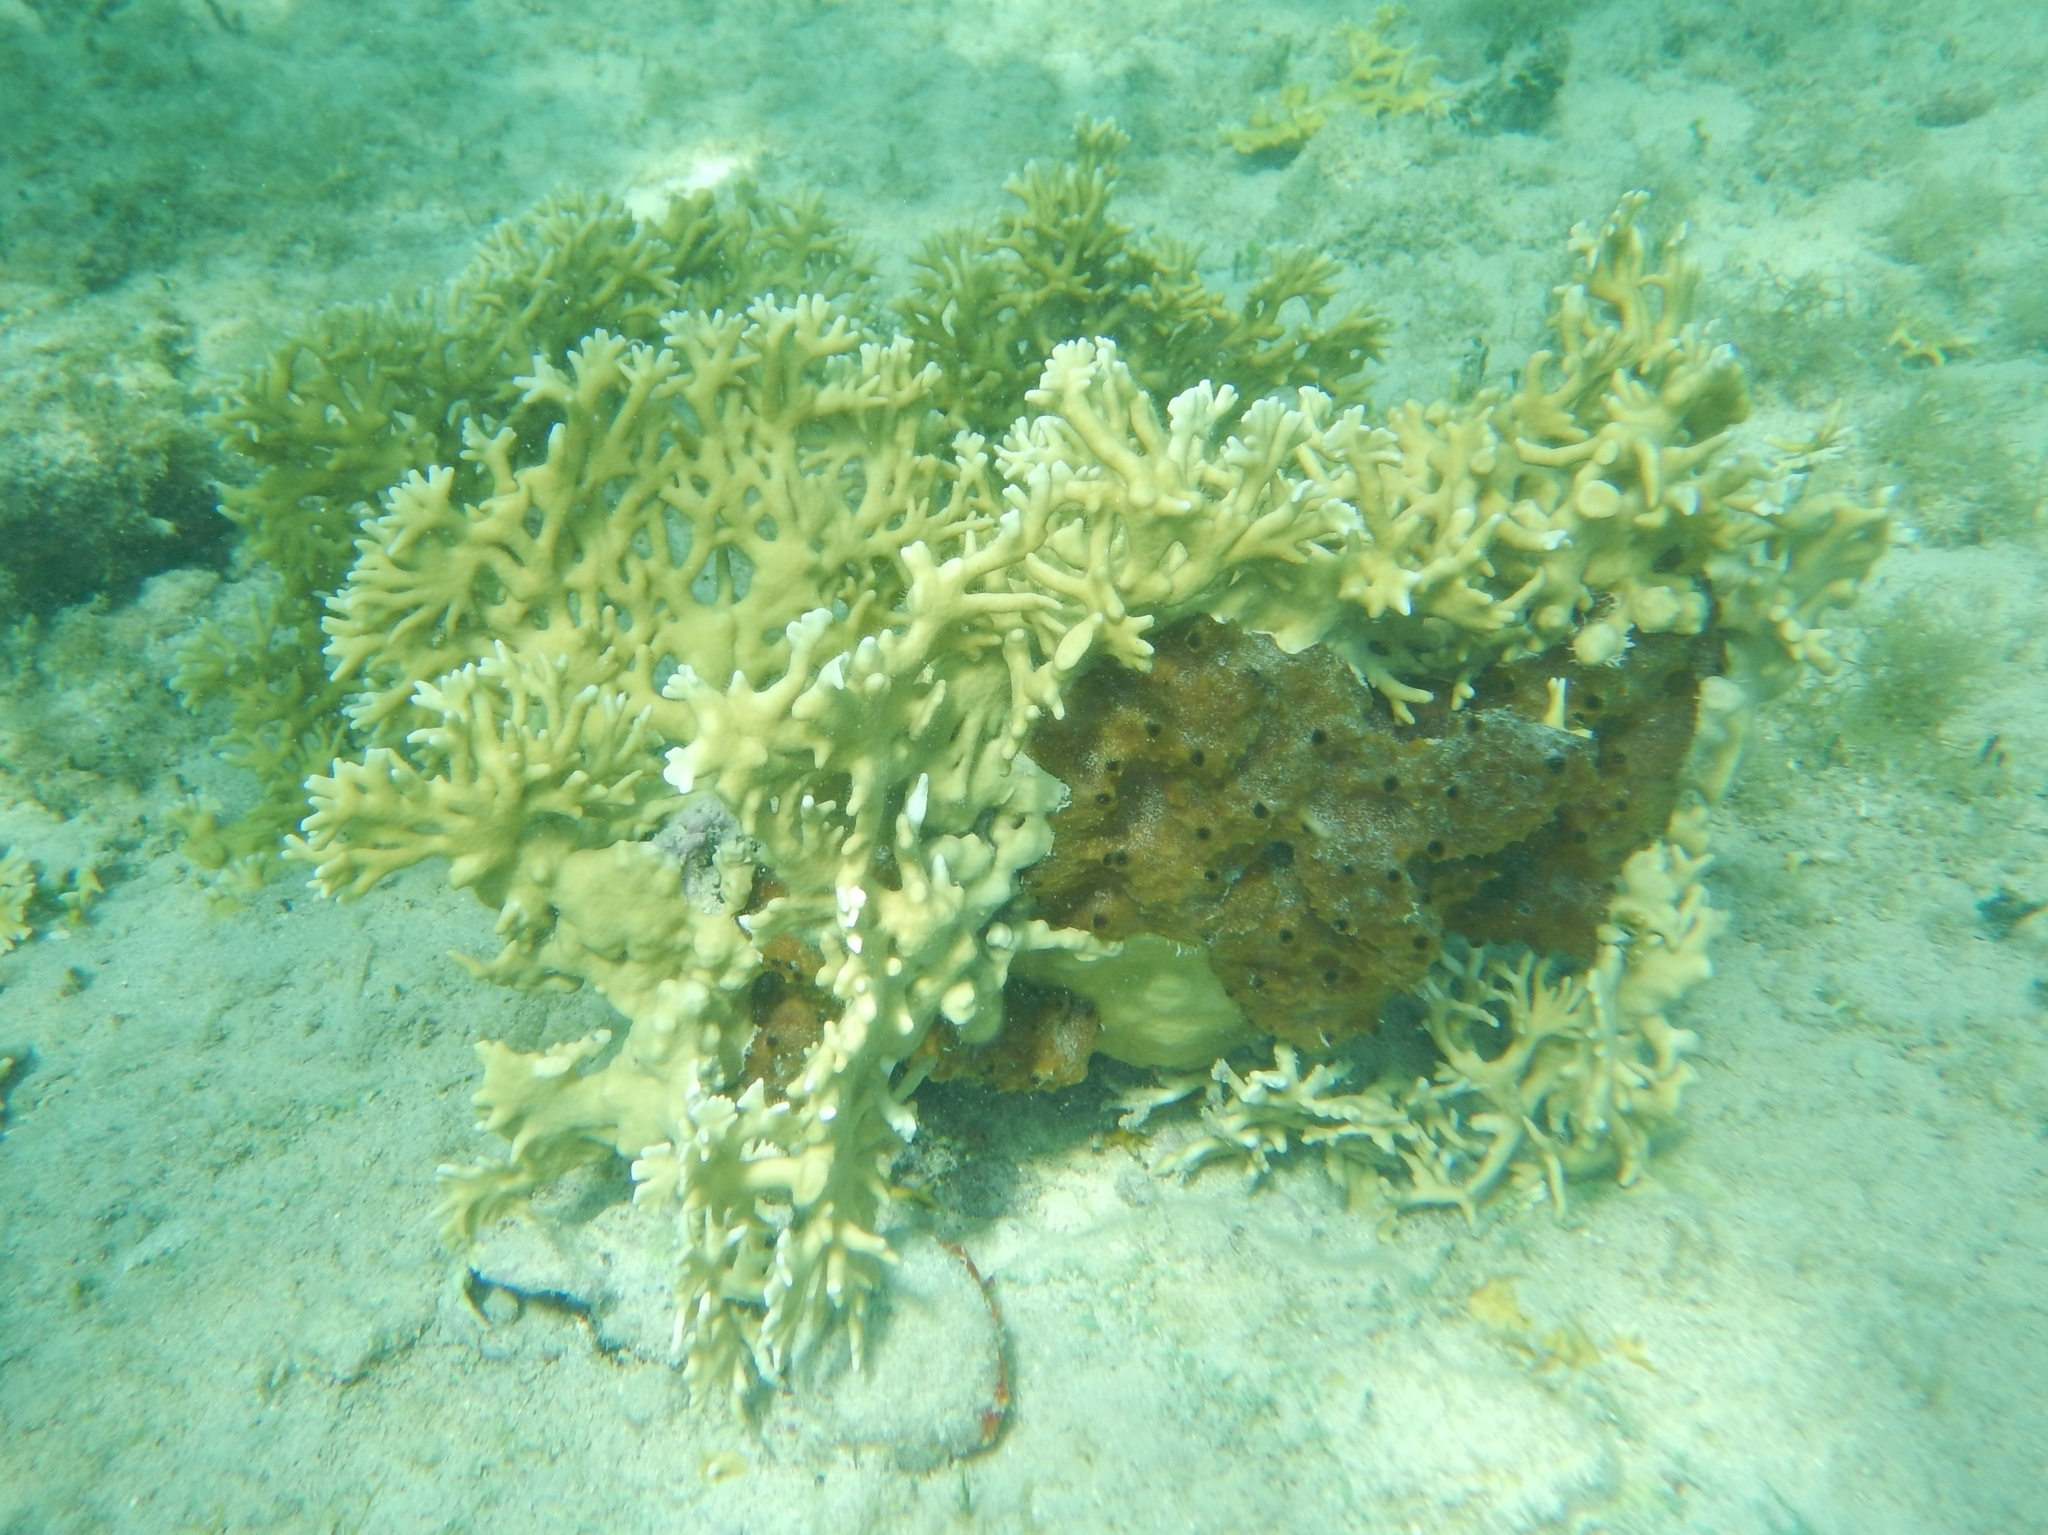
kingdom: Animalia
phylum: Cnidaria
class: Hydrozoa
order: Anthoathecata
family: Milleporidae
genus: Millepora
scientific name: Millepora alcicornis
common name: Branching fire coral
